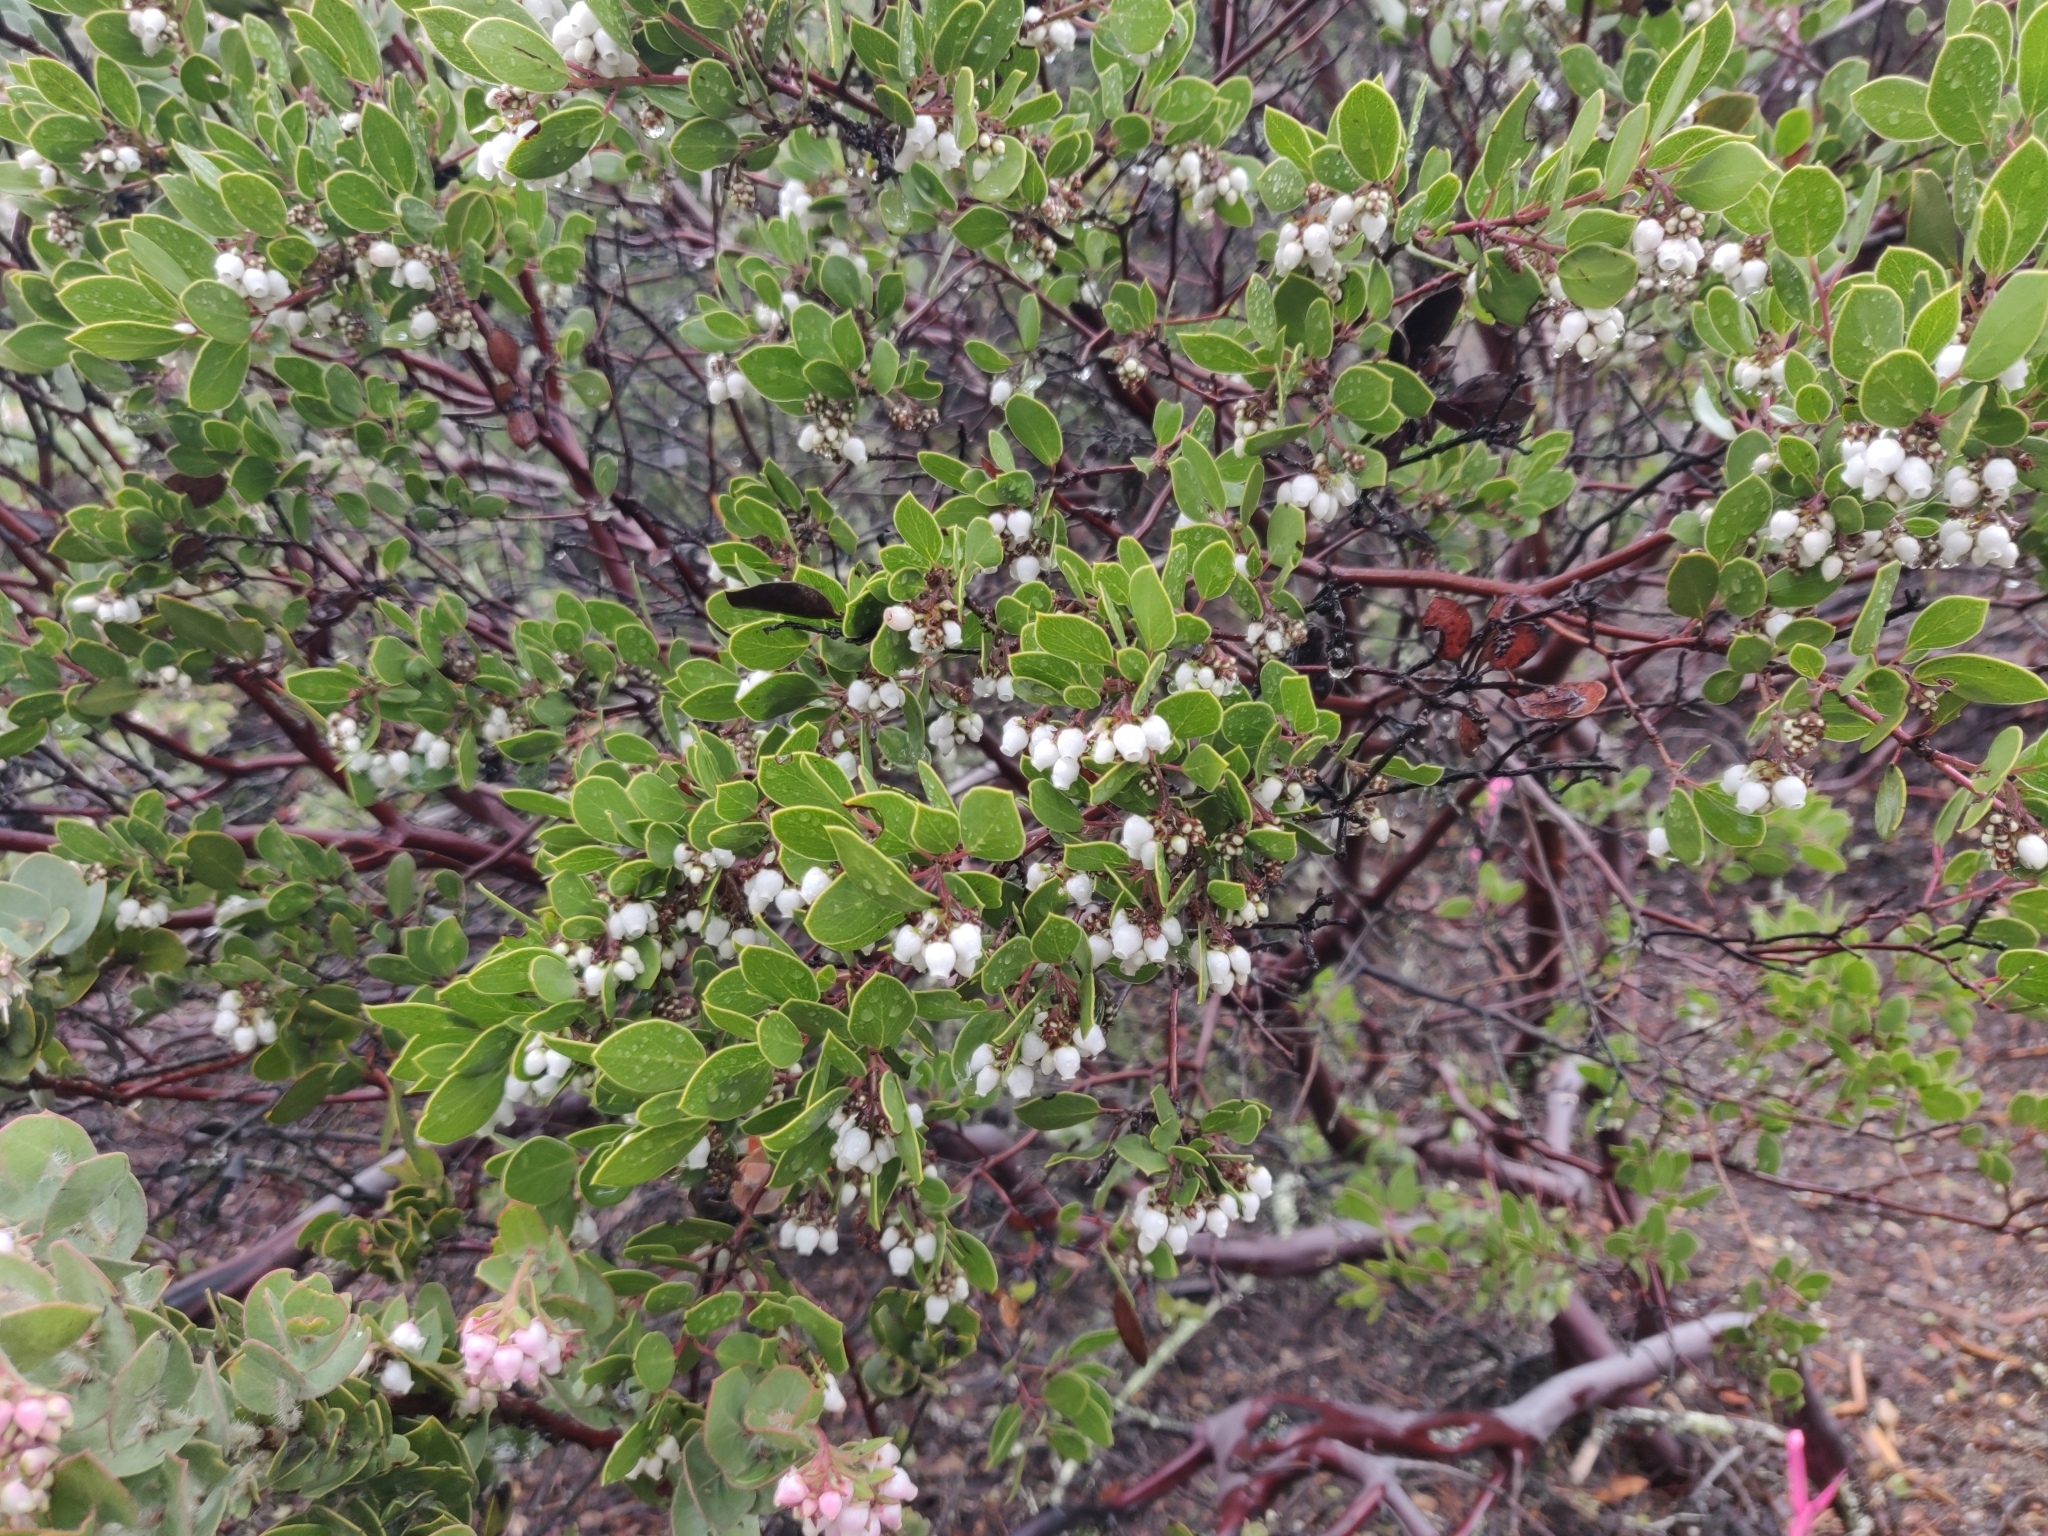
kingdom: Plantae
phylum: Tracheophyta
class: Magnoliopsida
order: Ericales
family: Ericaceae
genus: Arctostaphylos
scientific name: Arctostaphylos manzanita
